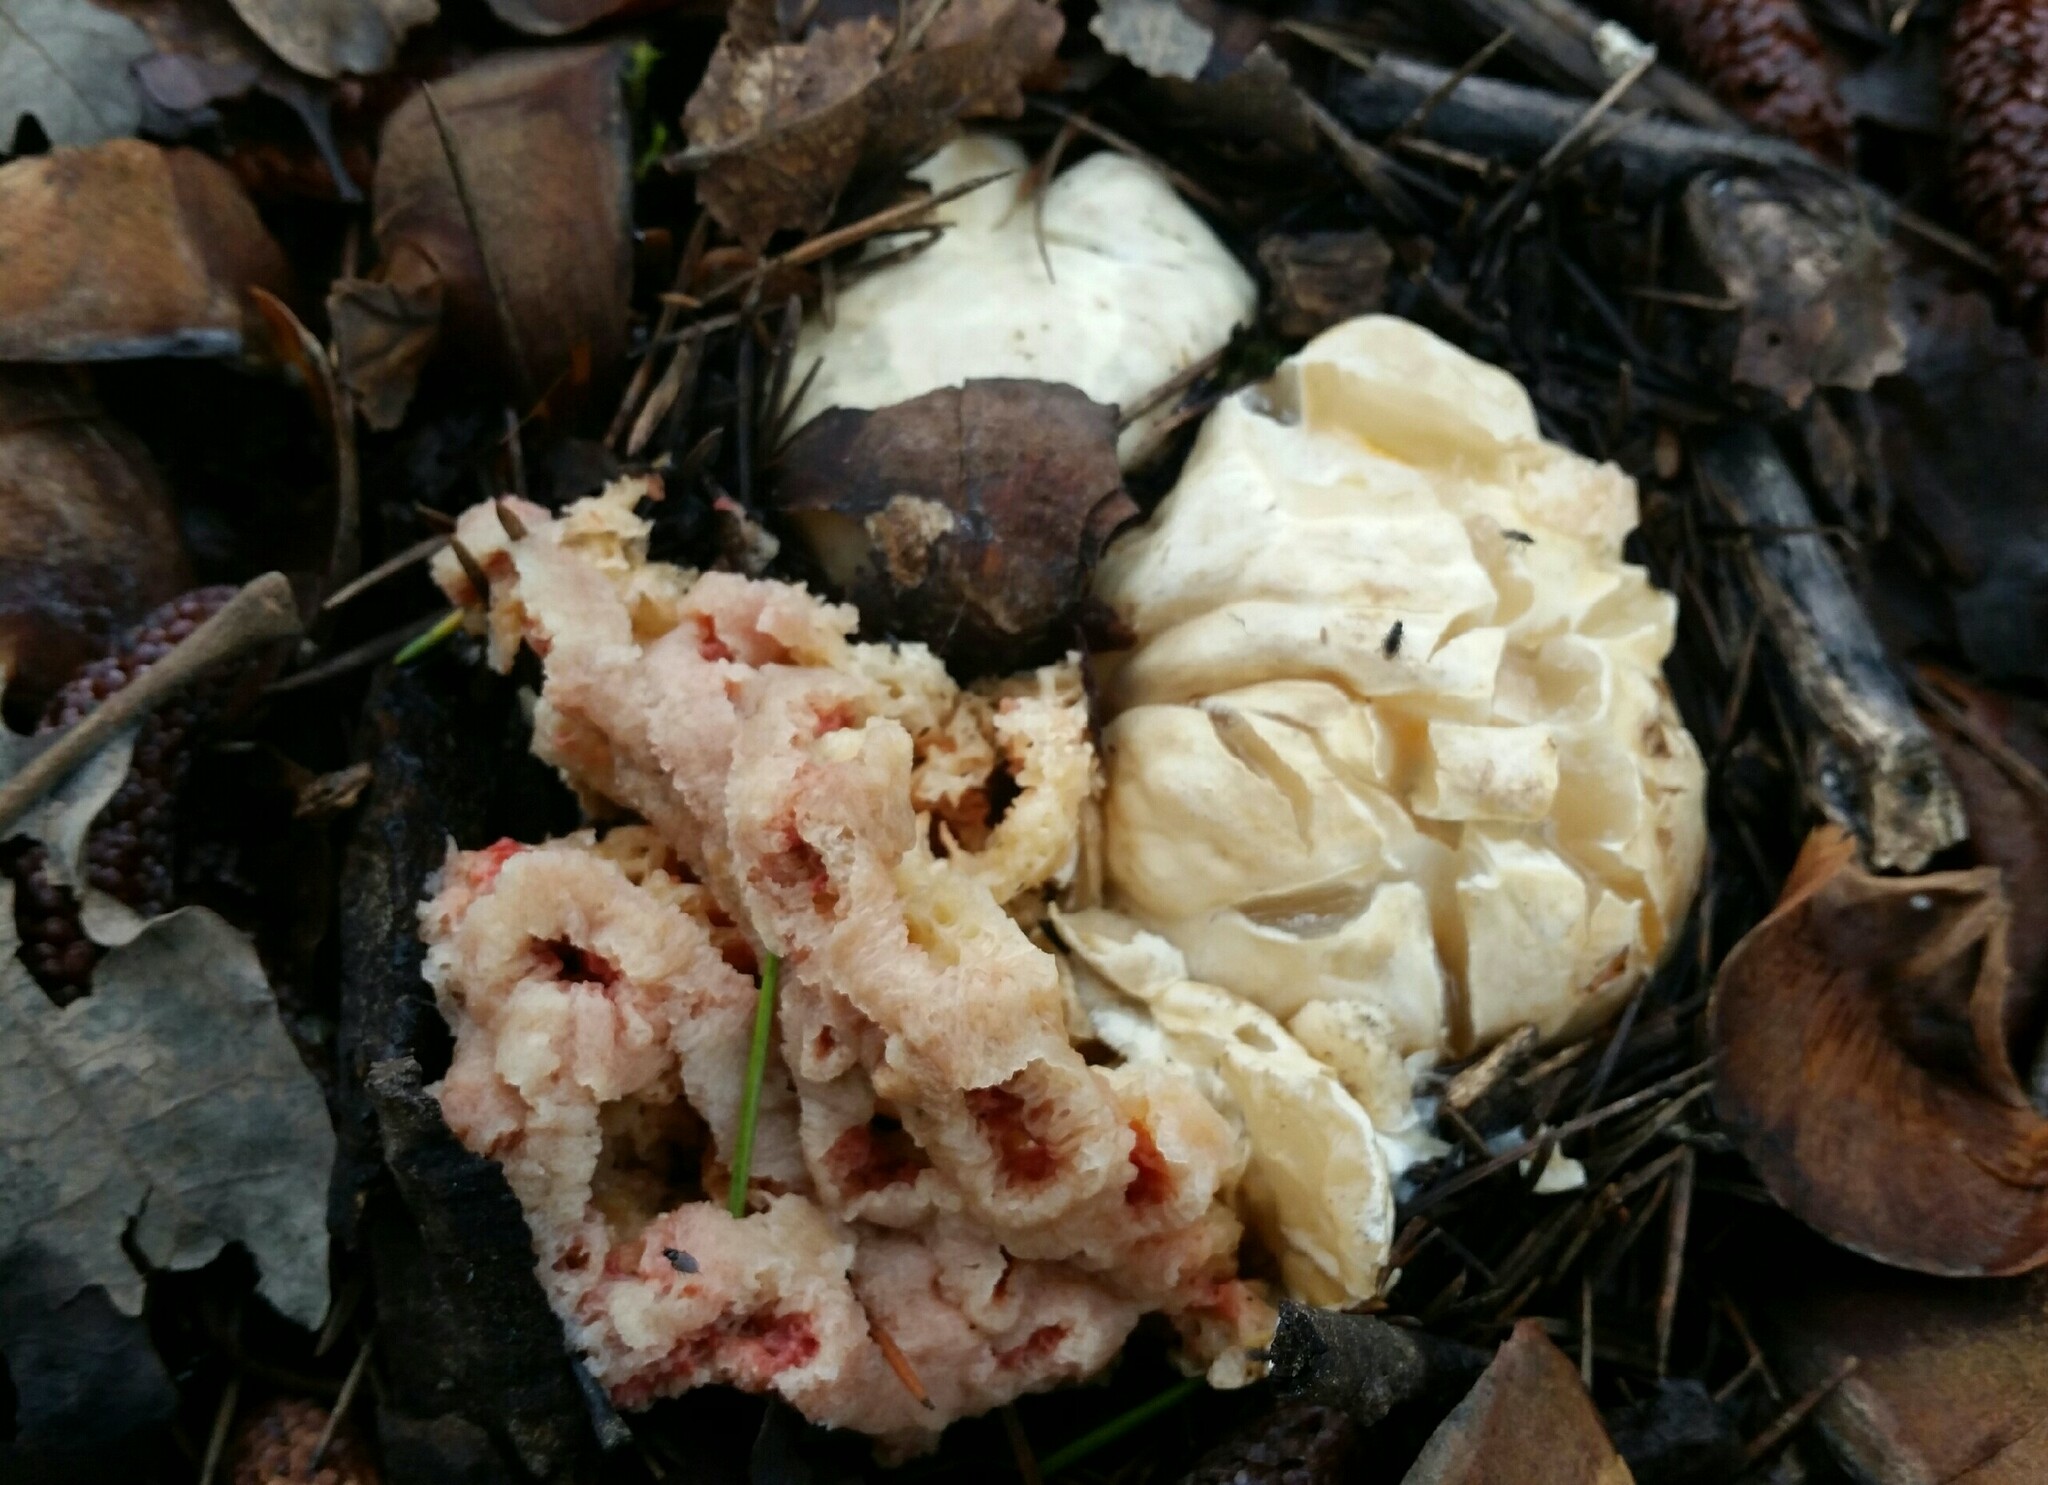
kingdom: Fungi
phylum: Basidiomycota
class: Agaricomycetes
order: Phallales
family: Phallaceae
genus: Clathrus
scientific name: Clathrus ruber
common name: Red cage
